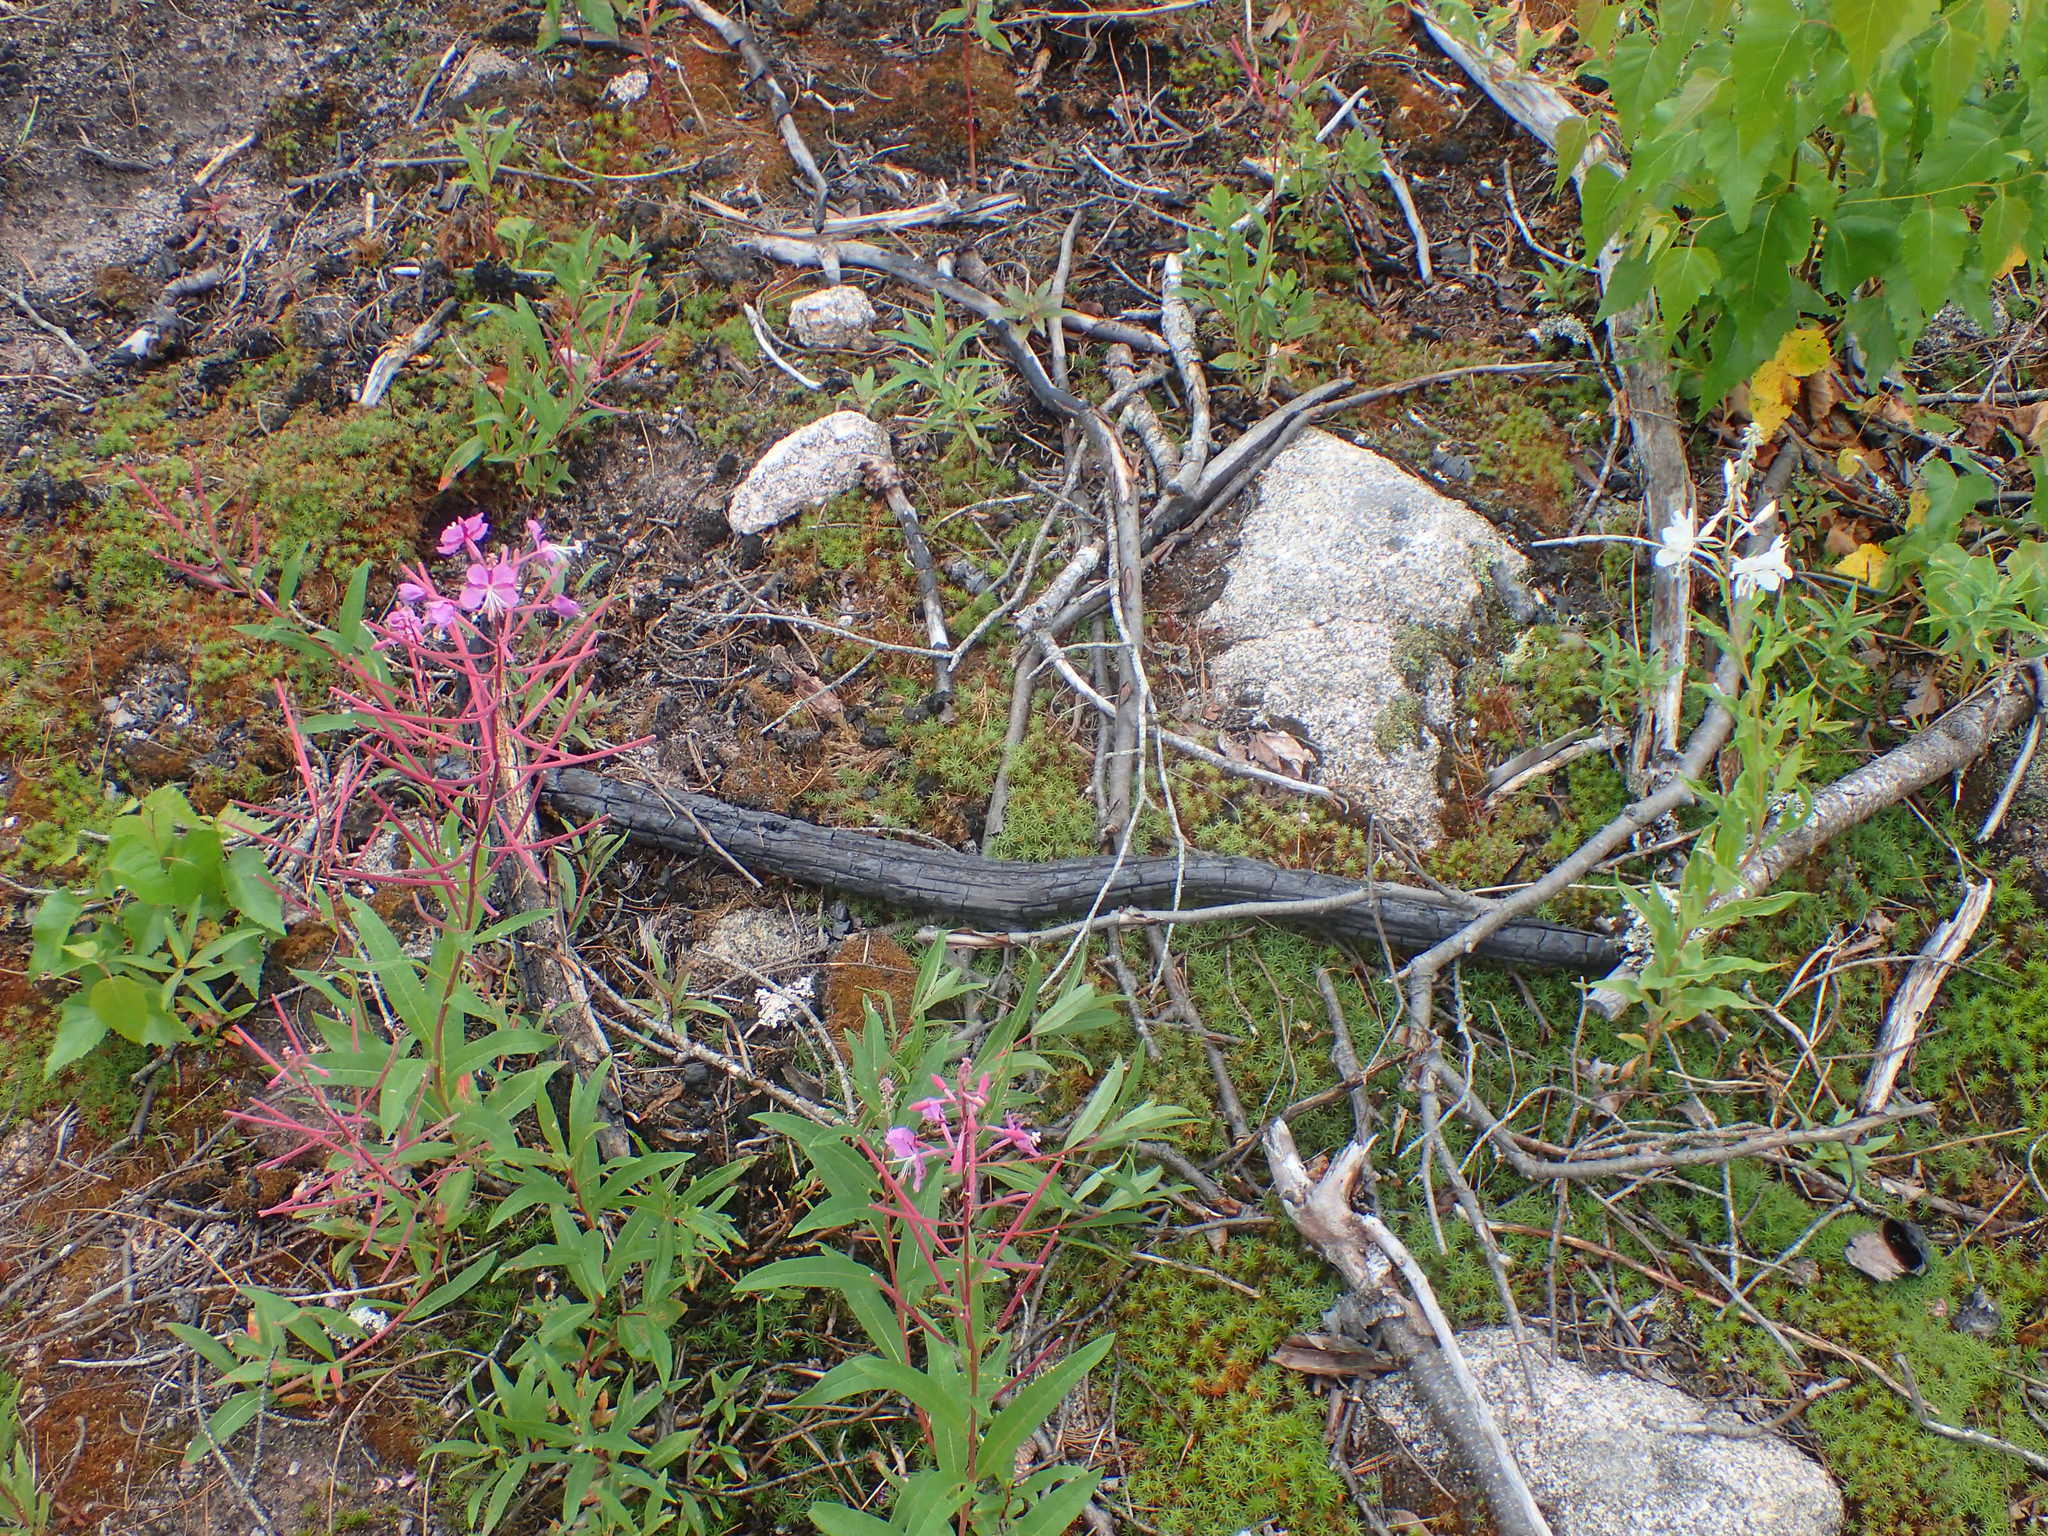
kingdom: Plantae
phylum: Tracheophyta
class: Magnoliopsida
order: Myrtales
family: Onagraceae
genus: Chamaenerion
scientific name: Chamaenerion angustifolium
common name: Fireweed
